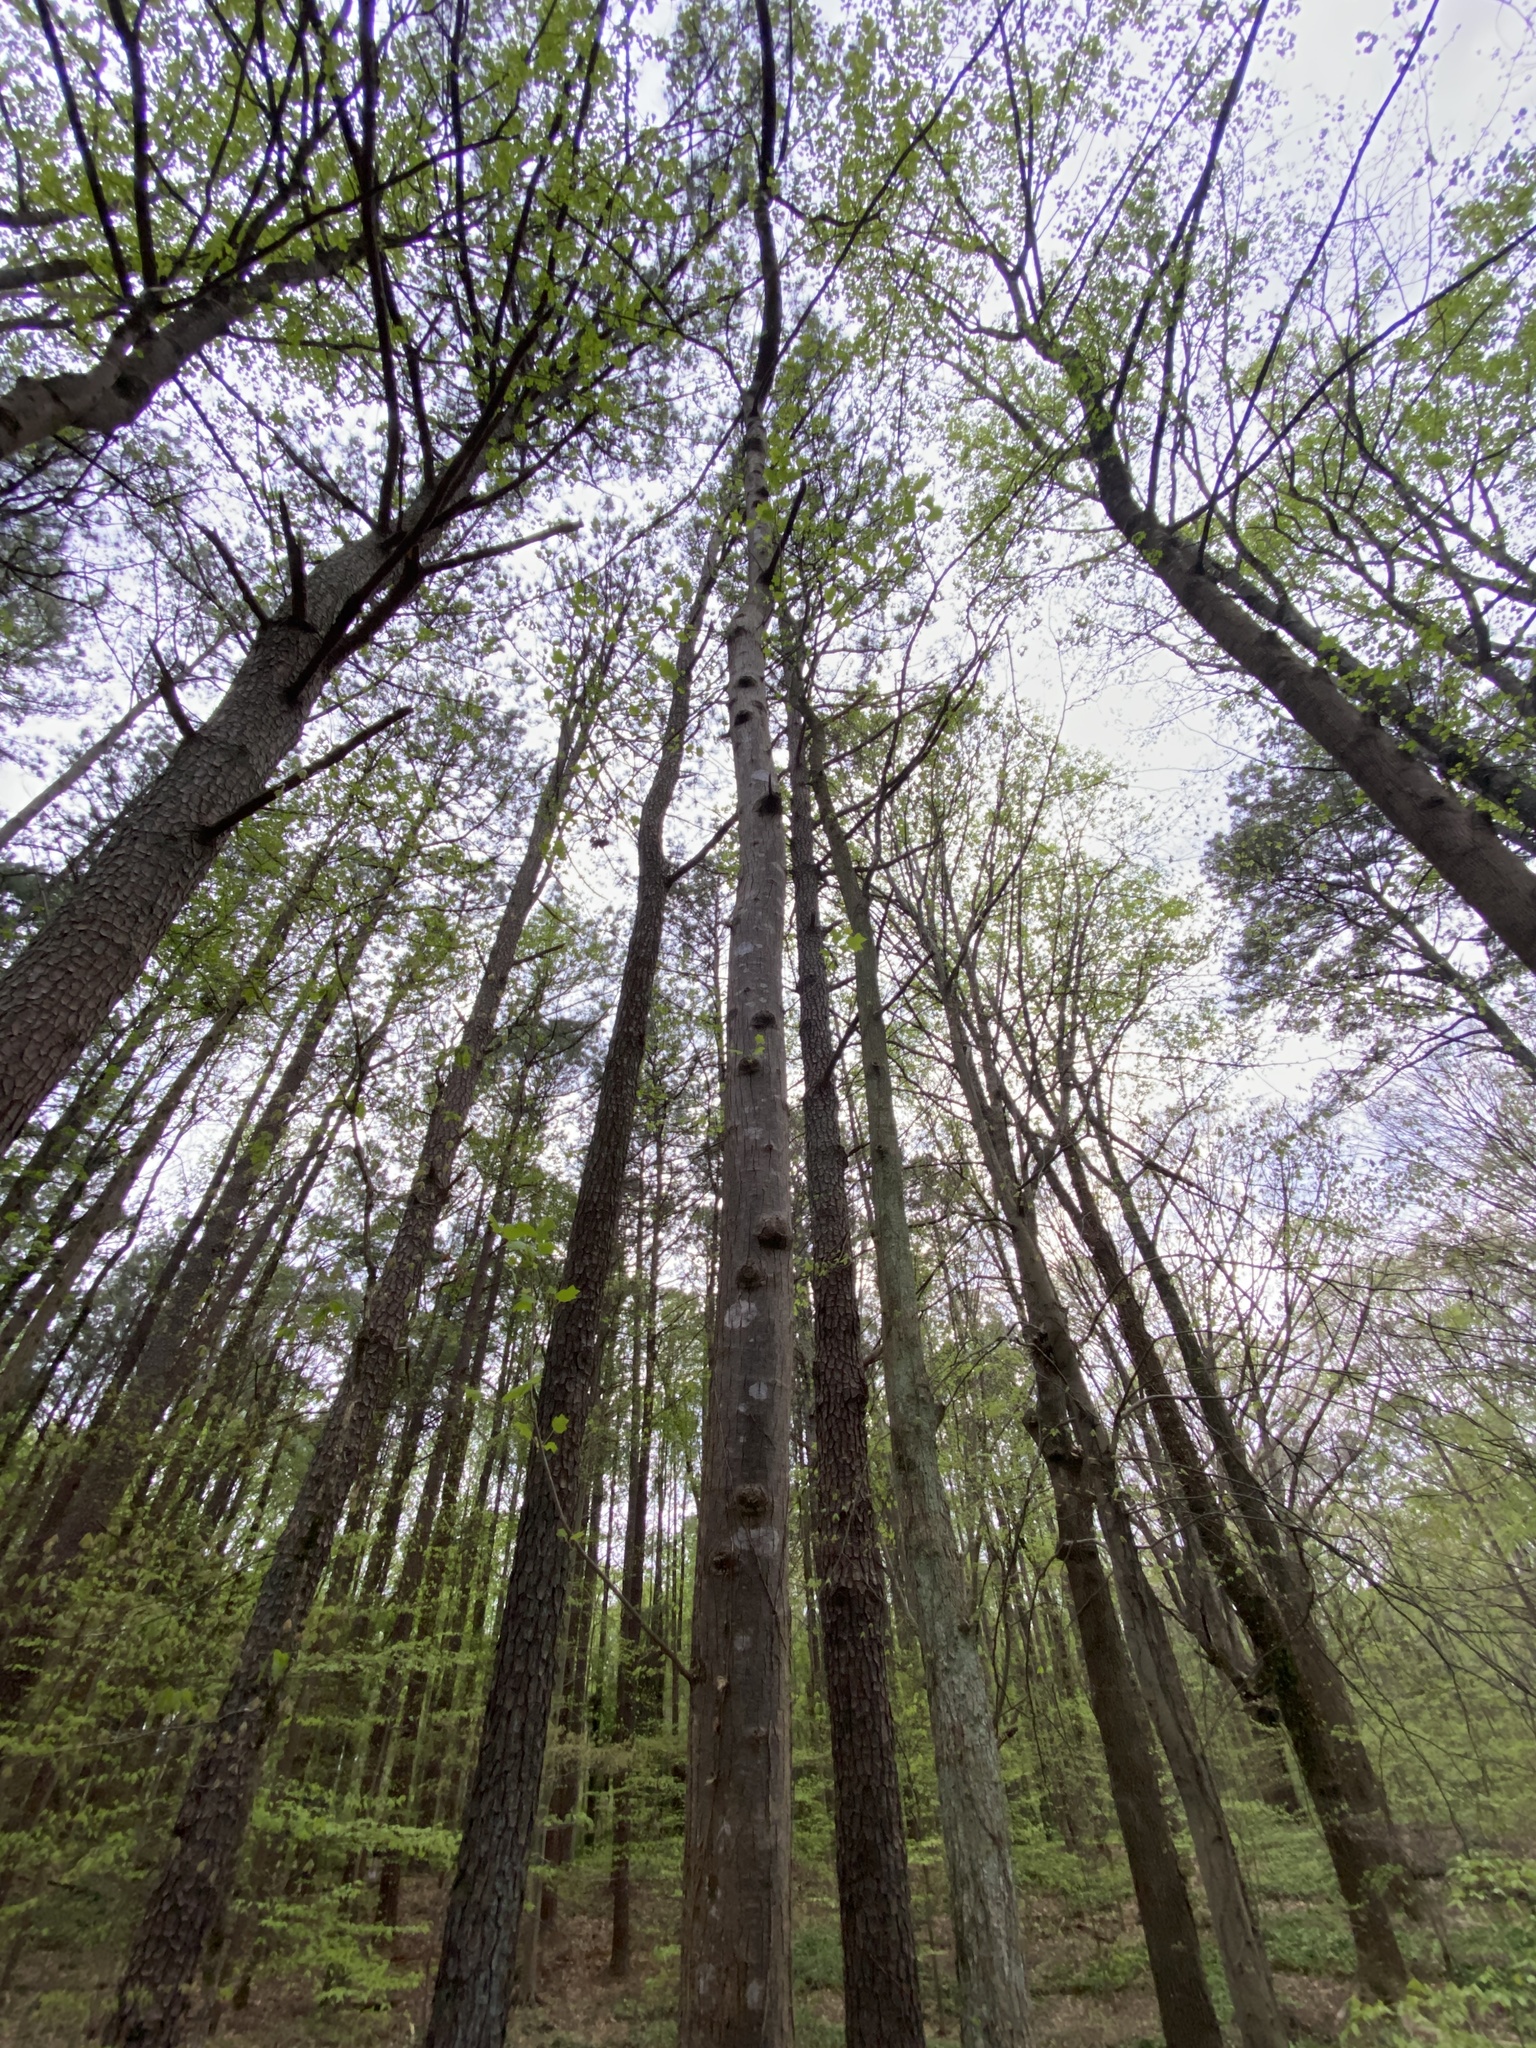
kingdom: Plantae
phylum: Tracheophyta
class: Magnoliopsida
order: Magnoliales
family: Magnoliaceae
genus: Liriodendron
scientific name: Liriodendron tulipifera
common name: Tulip tree
